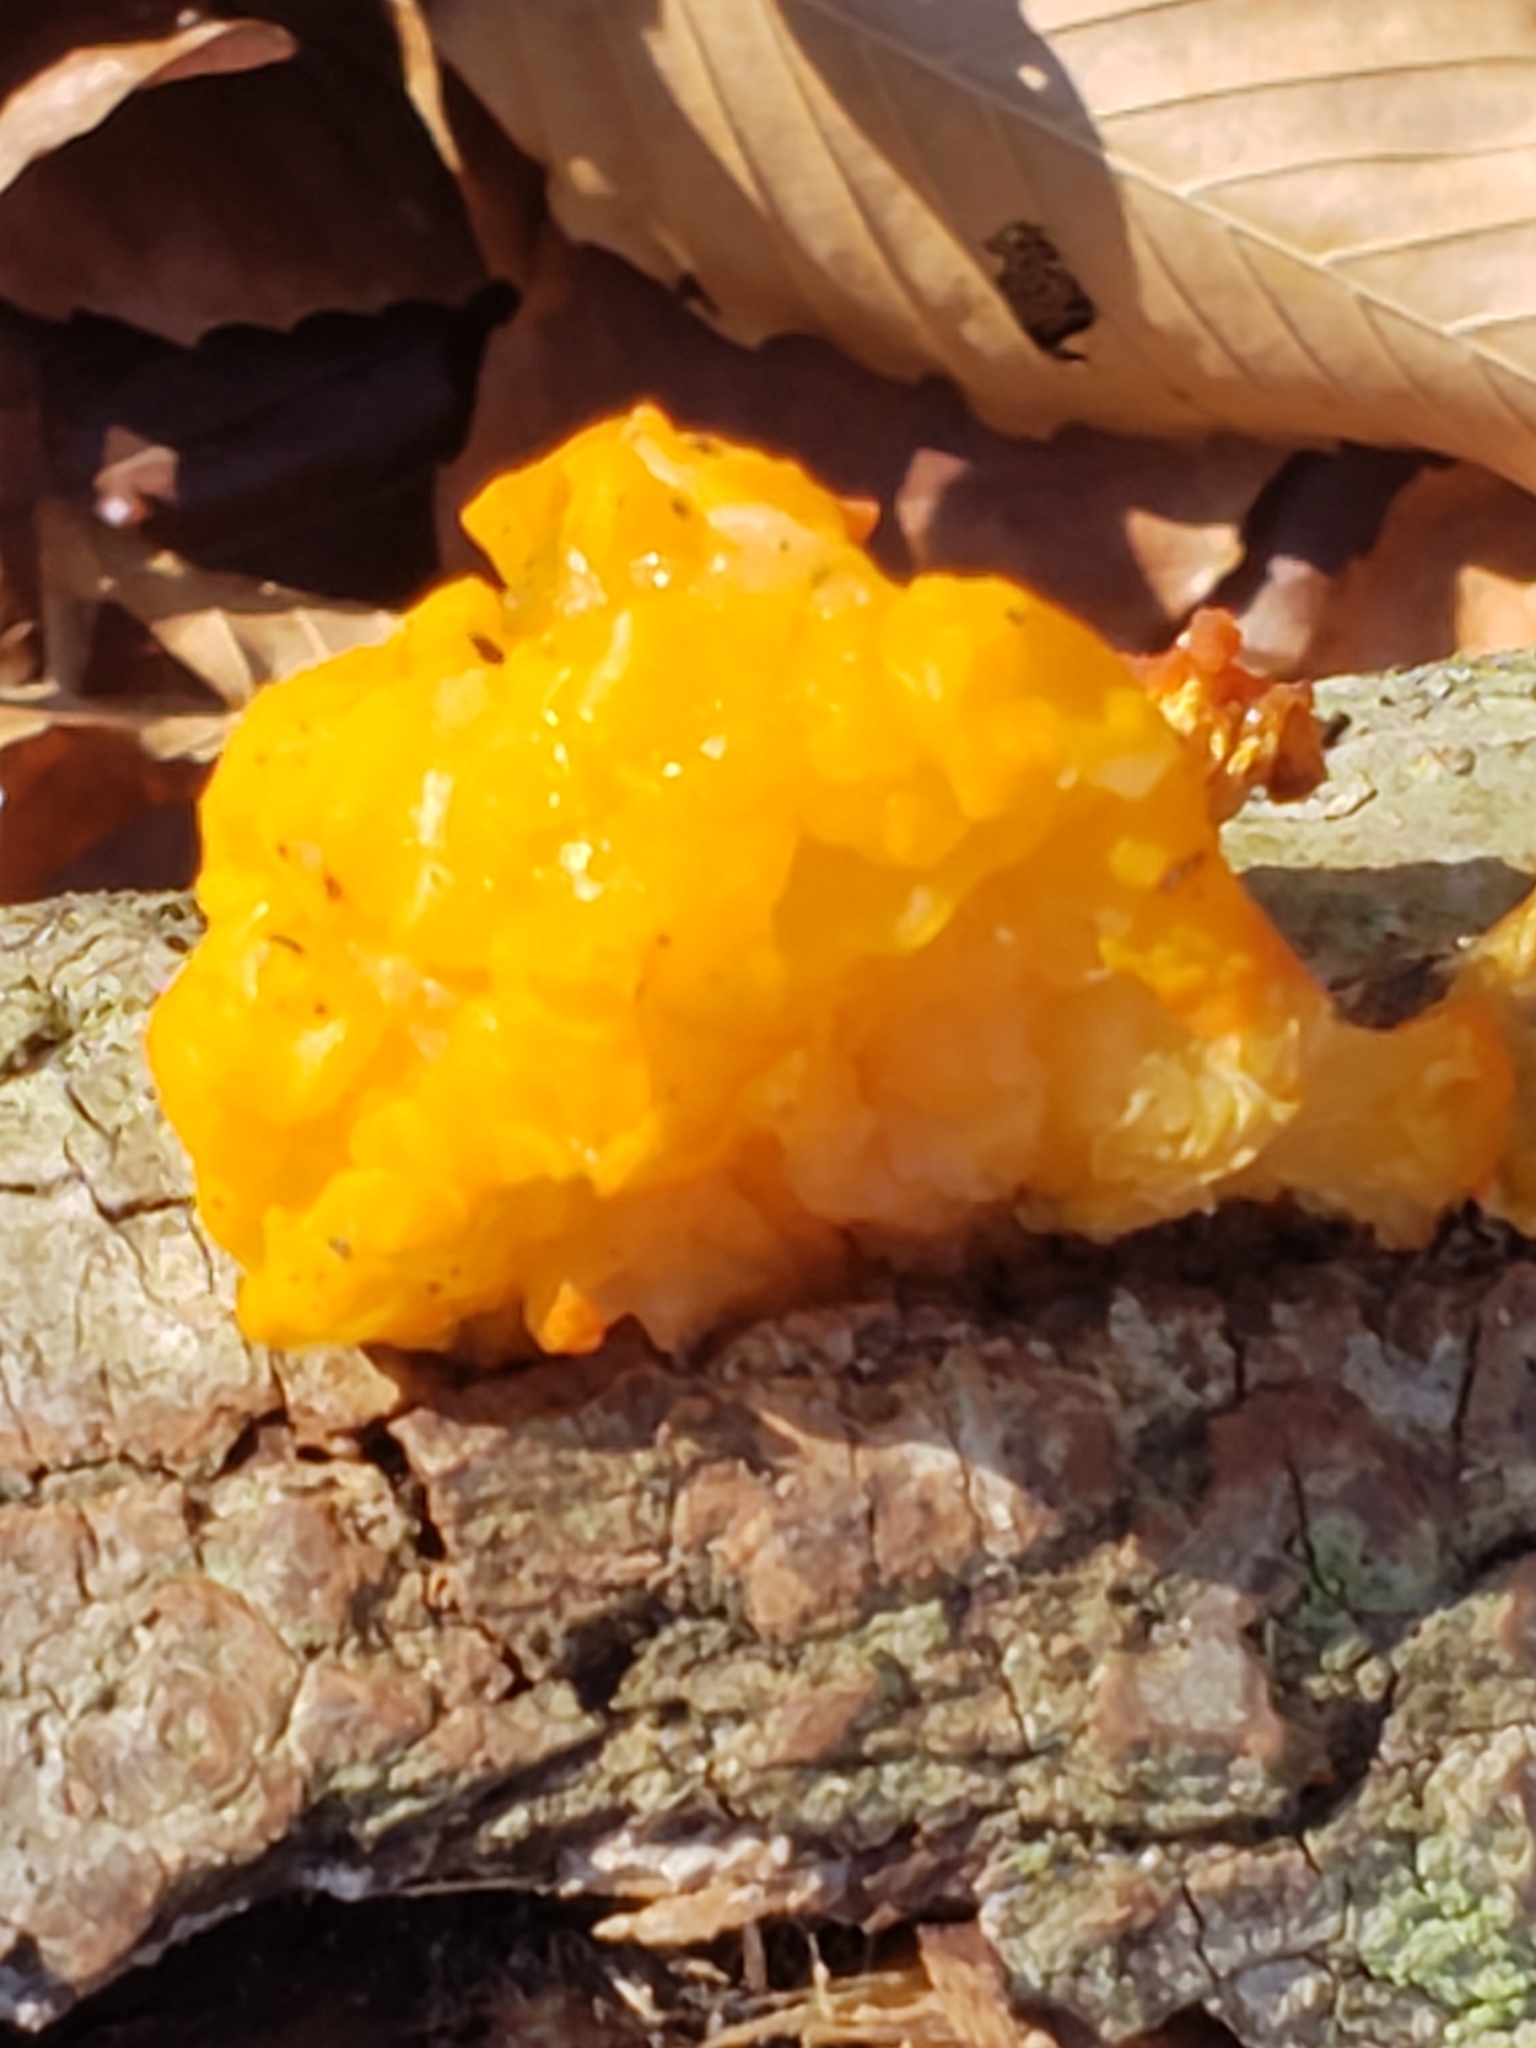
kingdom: Fungi
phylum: Basidiomycota
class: Tremellomycetes
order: Tremellales
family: Tremellaceae
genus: Tremella
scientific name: Tremella mesenterica
